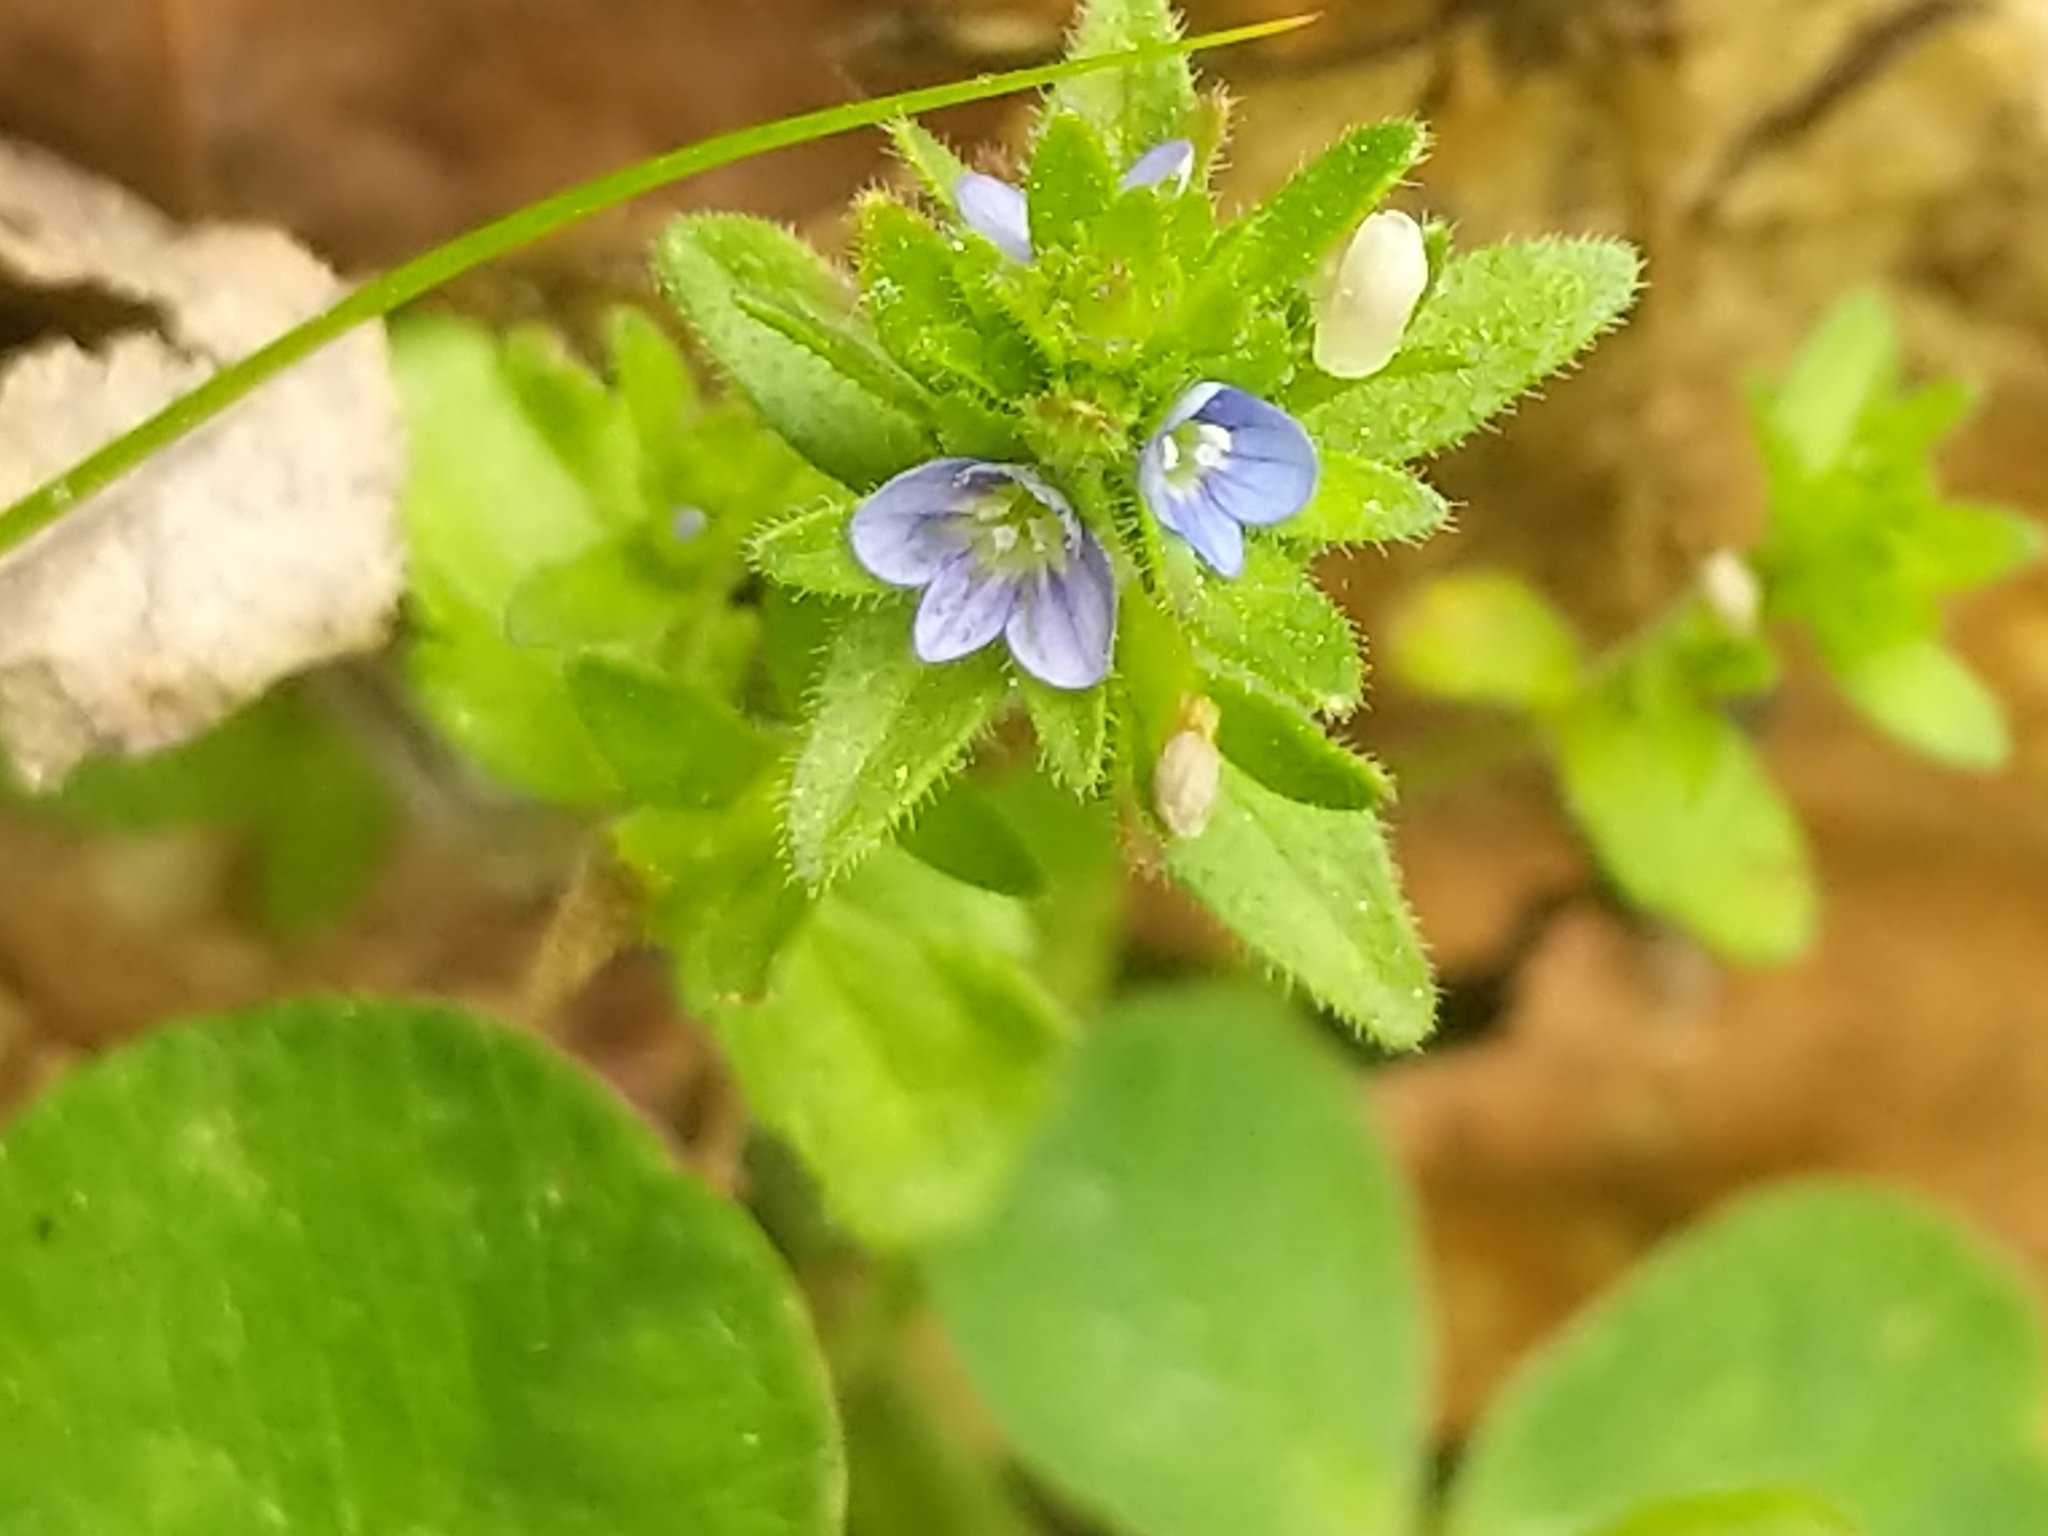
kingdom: Plantae
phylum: Tracheophyta
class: Magnoliopsida
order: Lamiales
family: Plantaginaceae
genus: Veronica
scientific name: Veronica arvensis
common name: Corn speedwell
